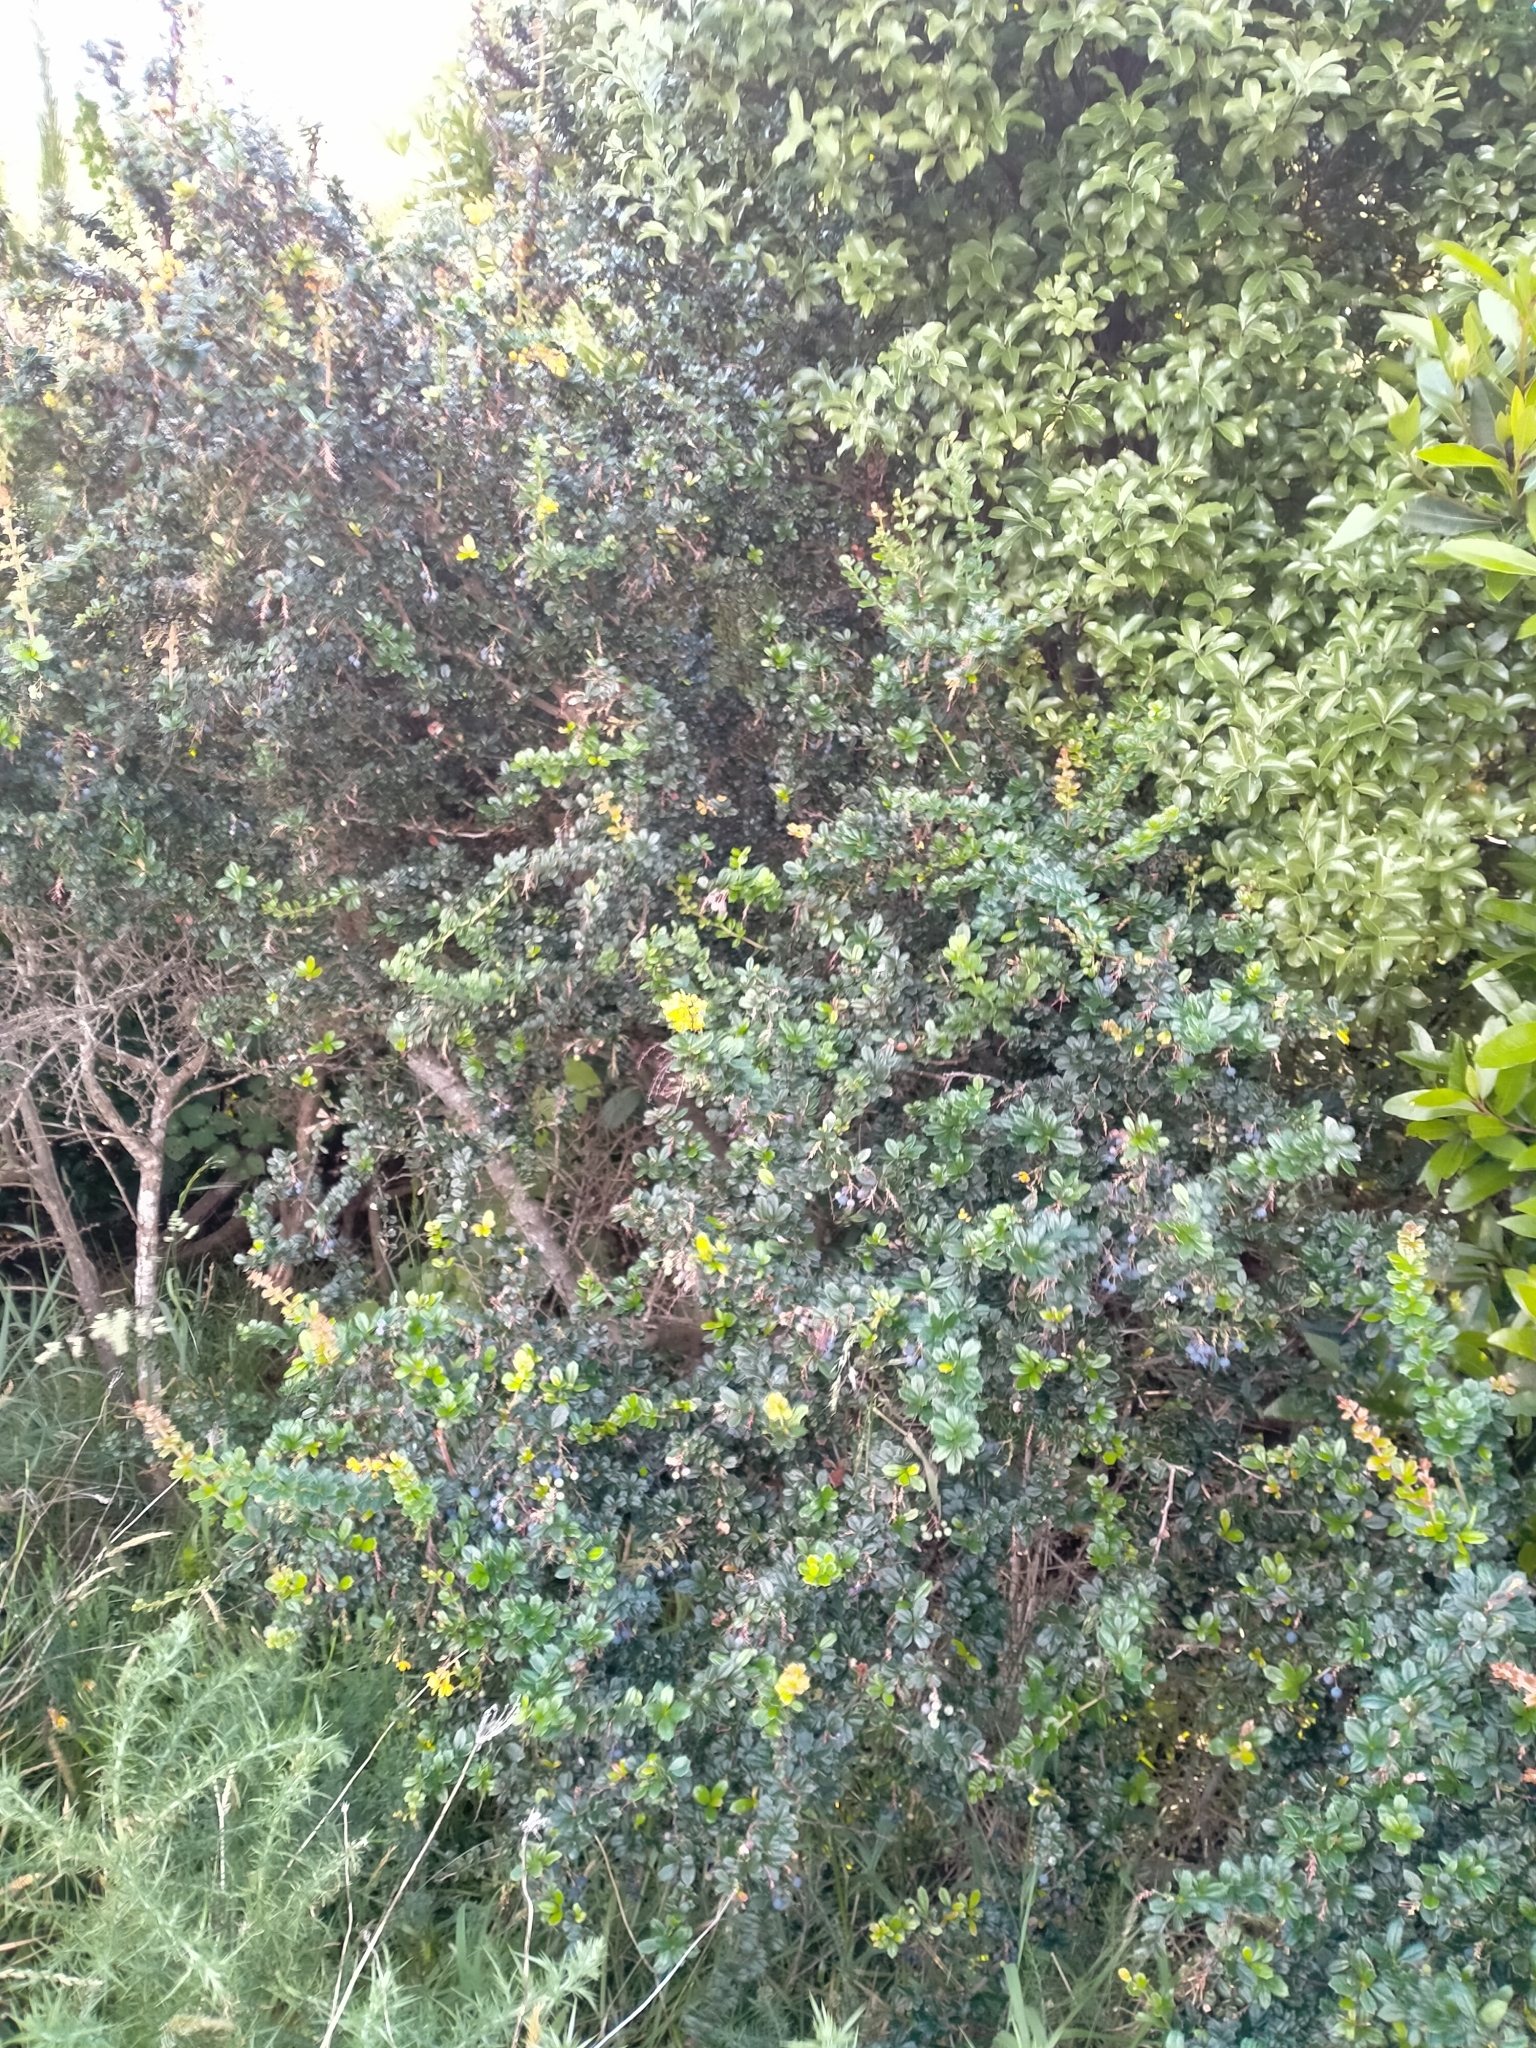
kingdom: Plantae
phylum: Tracheophyta
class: Magnoliopsida
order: Ranunculales
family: Berberidaceae
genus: Berberis
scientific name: Berberis darwinii
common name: Darwin's barberry
